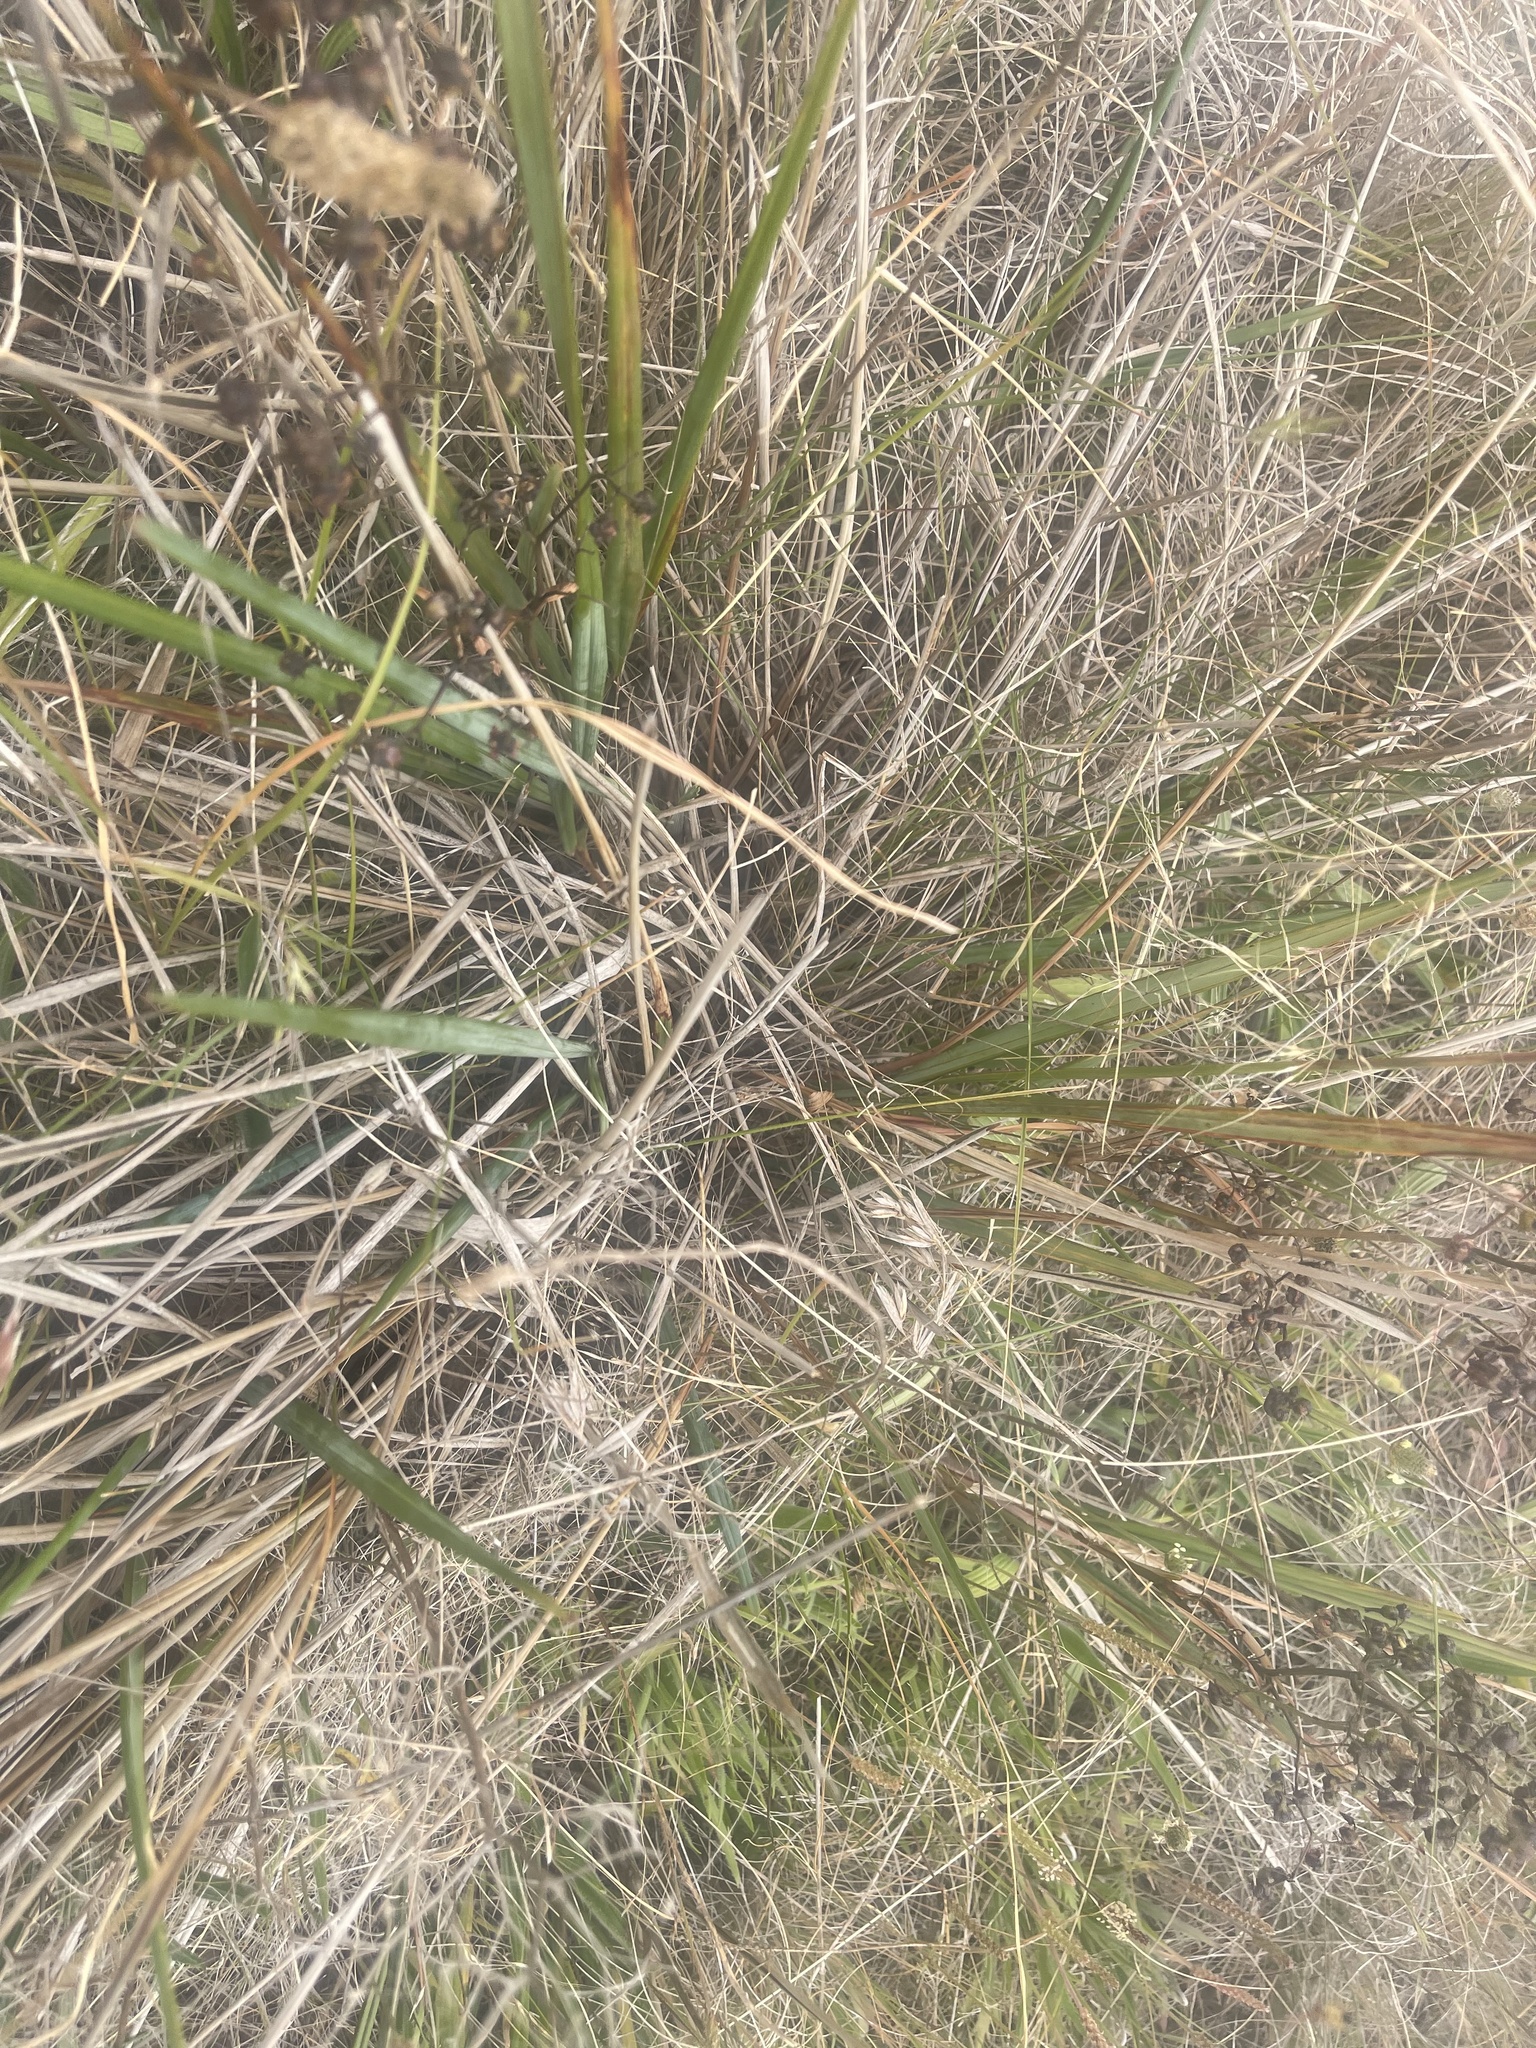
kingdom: Plantae
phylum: Tracheophyta
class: Liliopsida
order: Asparagales
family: Asphodelaceae
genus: Dianella
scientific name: Dianella revoluta
